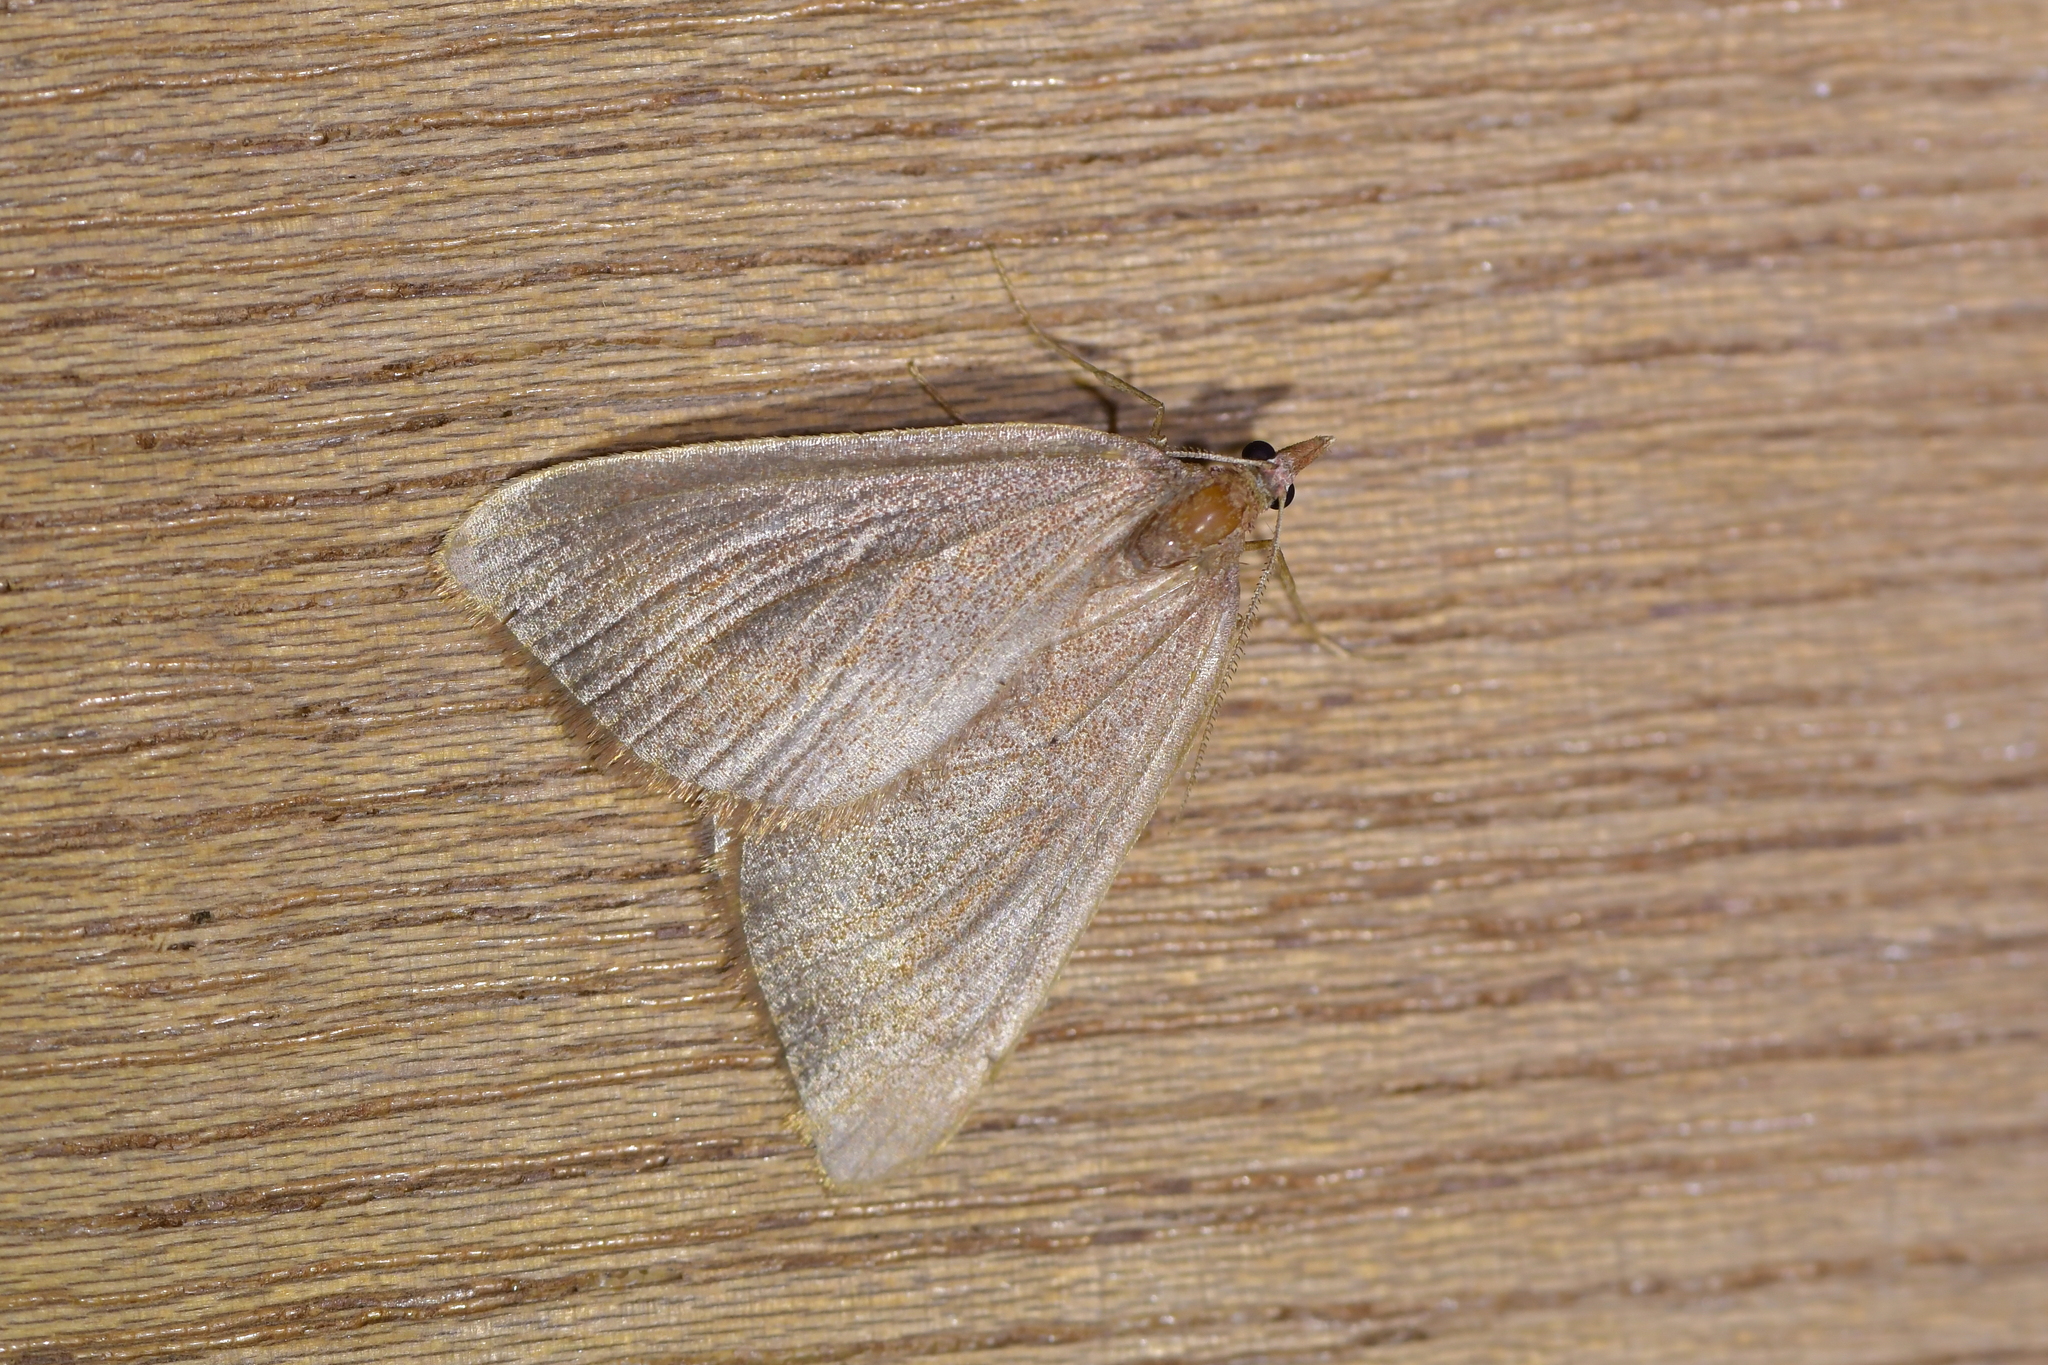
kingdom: Animalia
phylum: Arthropoda
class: Insecta
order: Lepidoptera
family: Geometridae
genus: Xanthorhoe
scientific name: Xanthorhoe occulta
